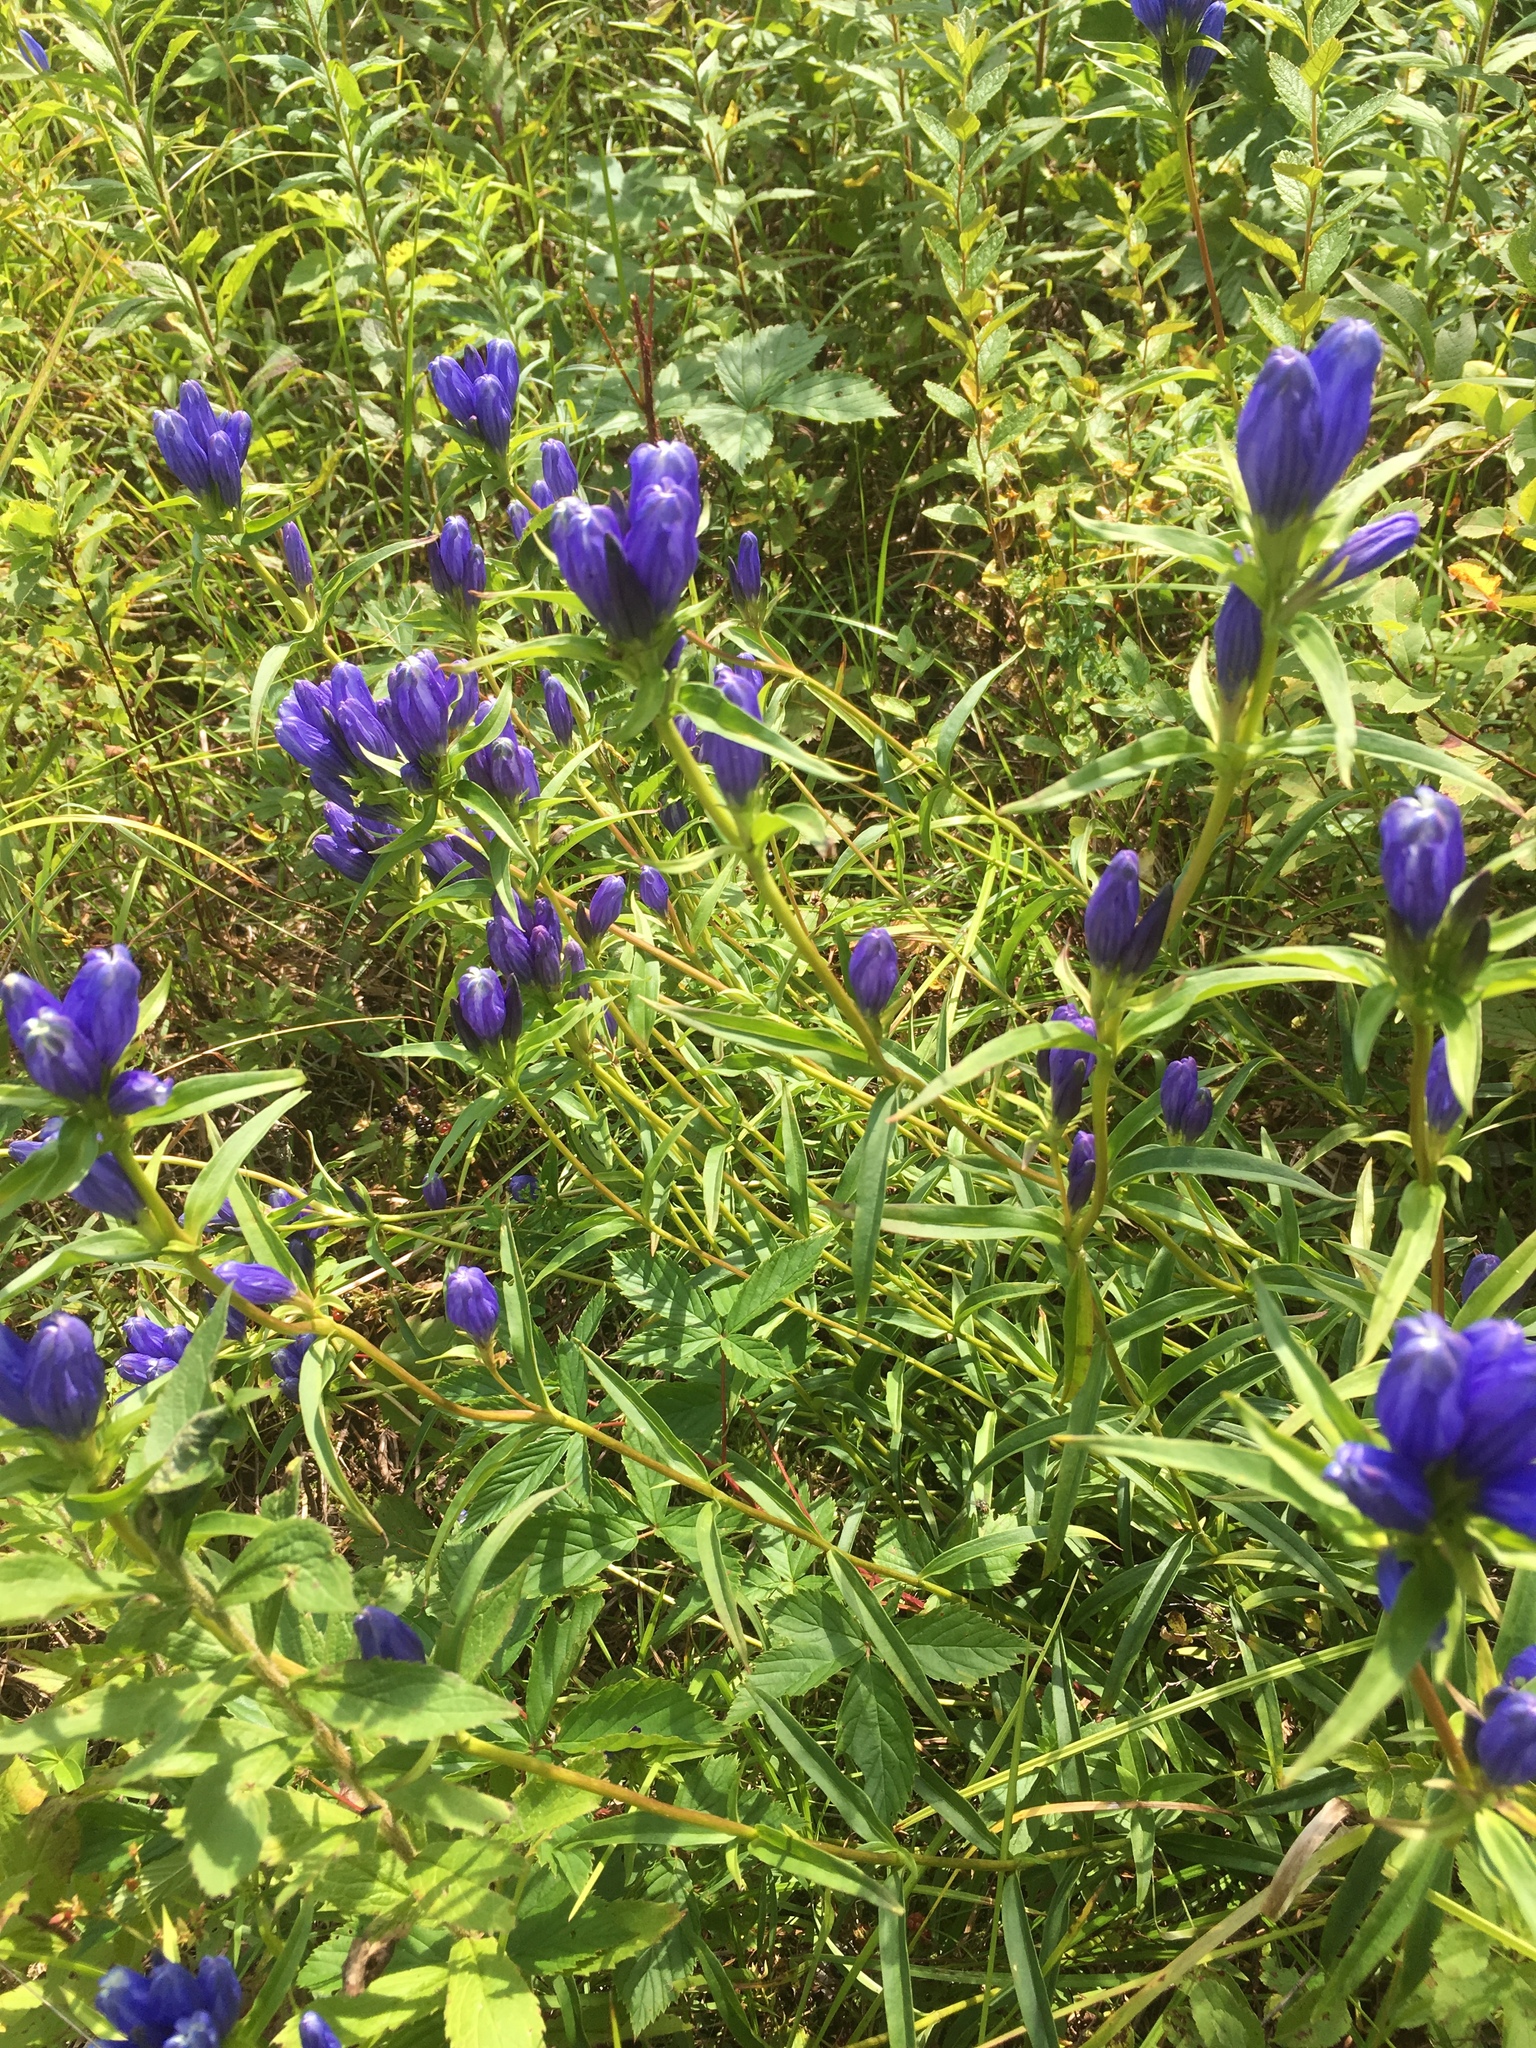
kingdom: Plantae
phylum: Tracheophyta
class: Magnoliopsida
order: Gentianales
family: Gentianaceae
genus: Gentiana
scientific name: Gentiana linearis
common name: Bastard gentian
